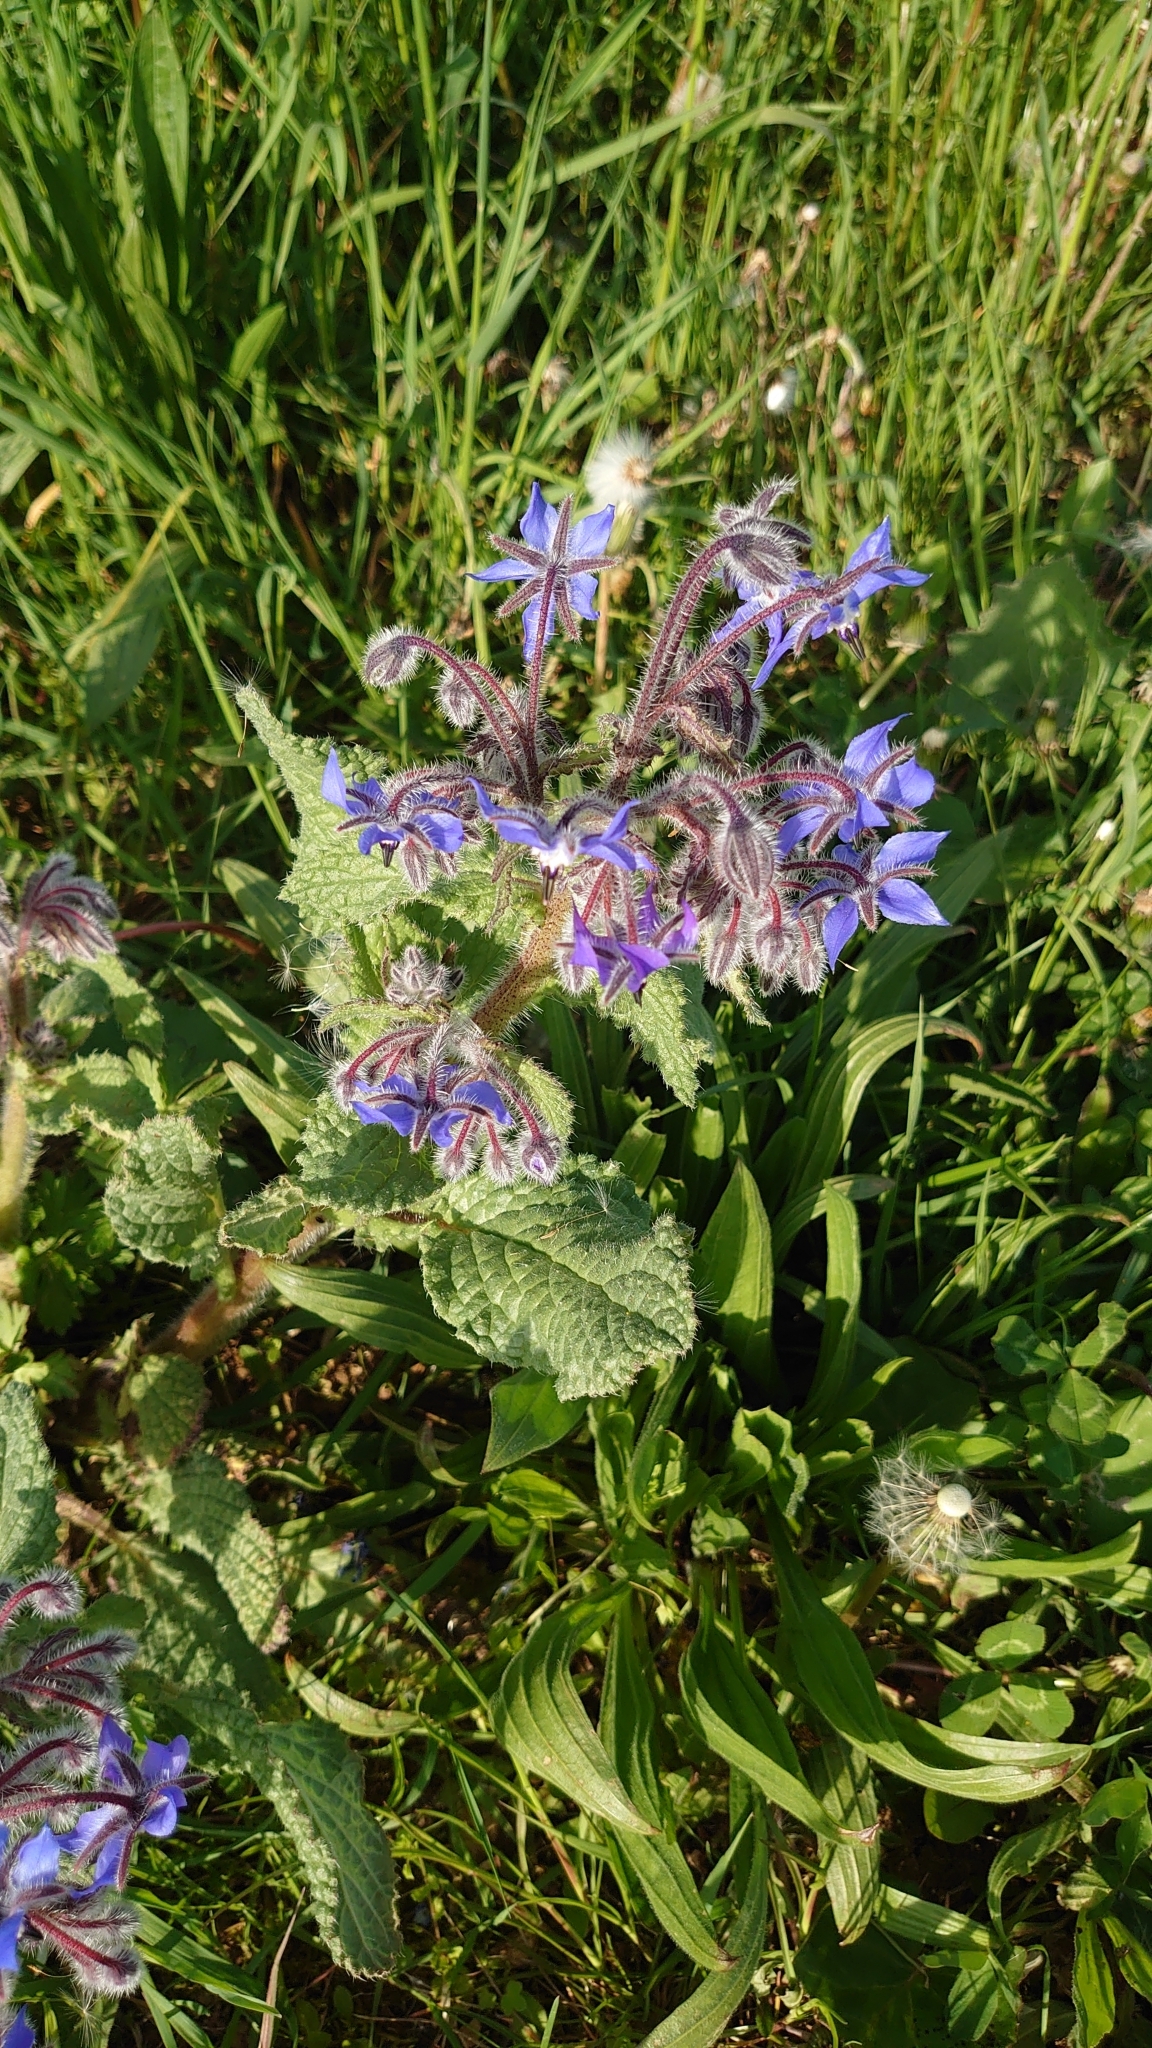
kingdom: Plantae
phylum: Tracheophyta
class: Magnoliopsida
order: Boraginales
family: Boraginaceae
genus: Borago
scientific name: Borago officinalis
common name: Borage
